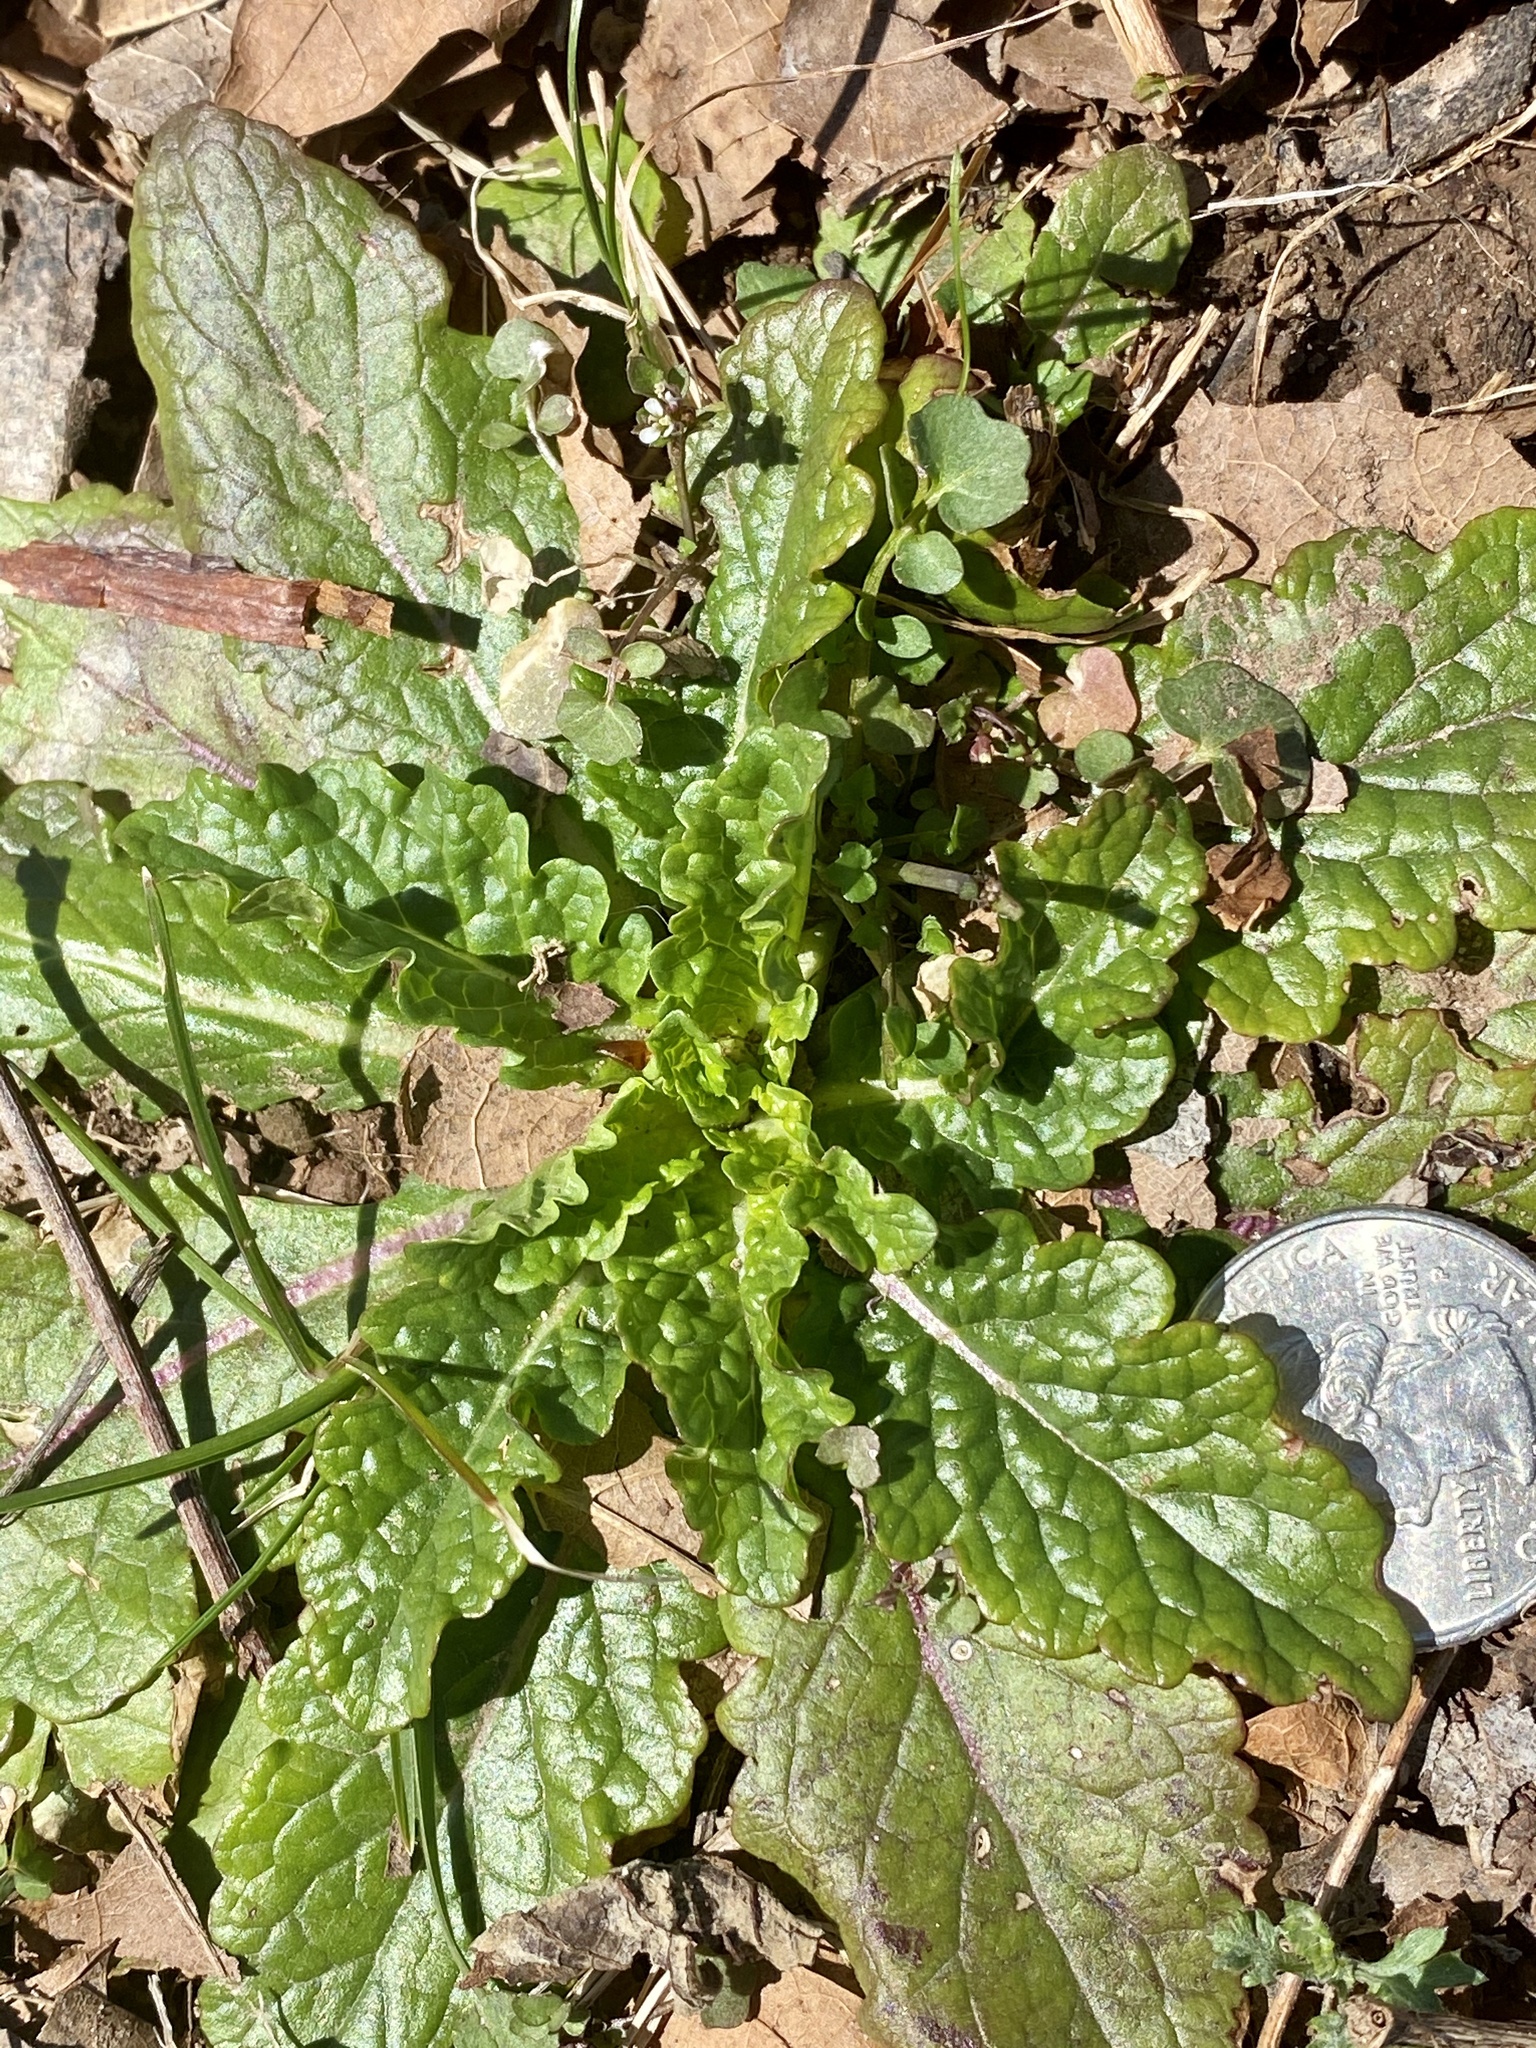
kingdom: Plantae
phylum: Tracheophyta
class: Magnoliopsida
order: Lamiales
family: Scrophulariaceae
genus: Verbascum
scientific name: Verbascum blattaria
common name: Moth mullein
